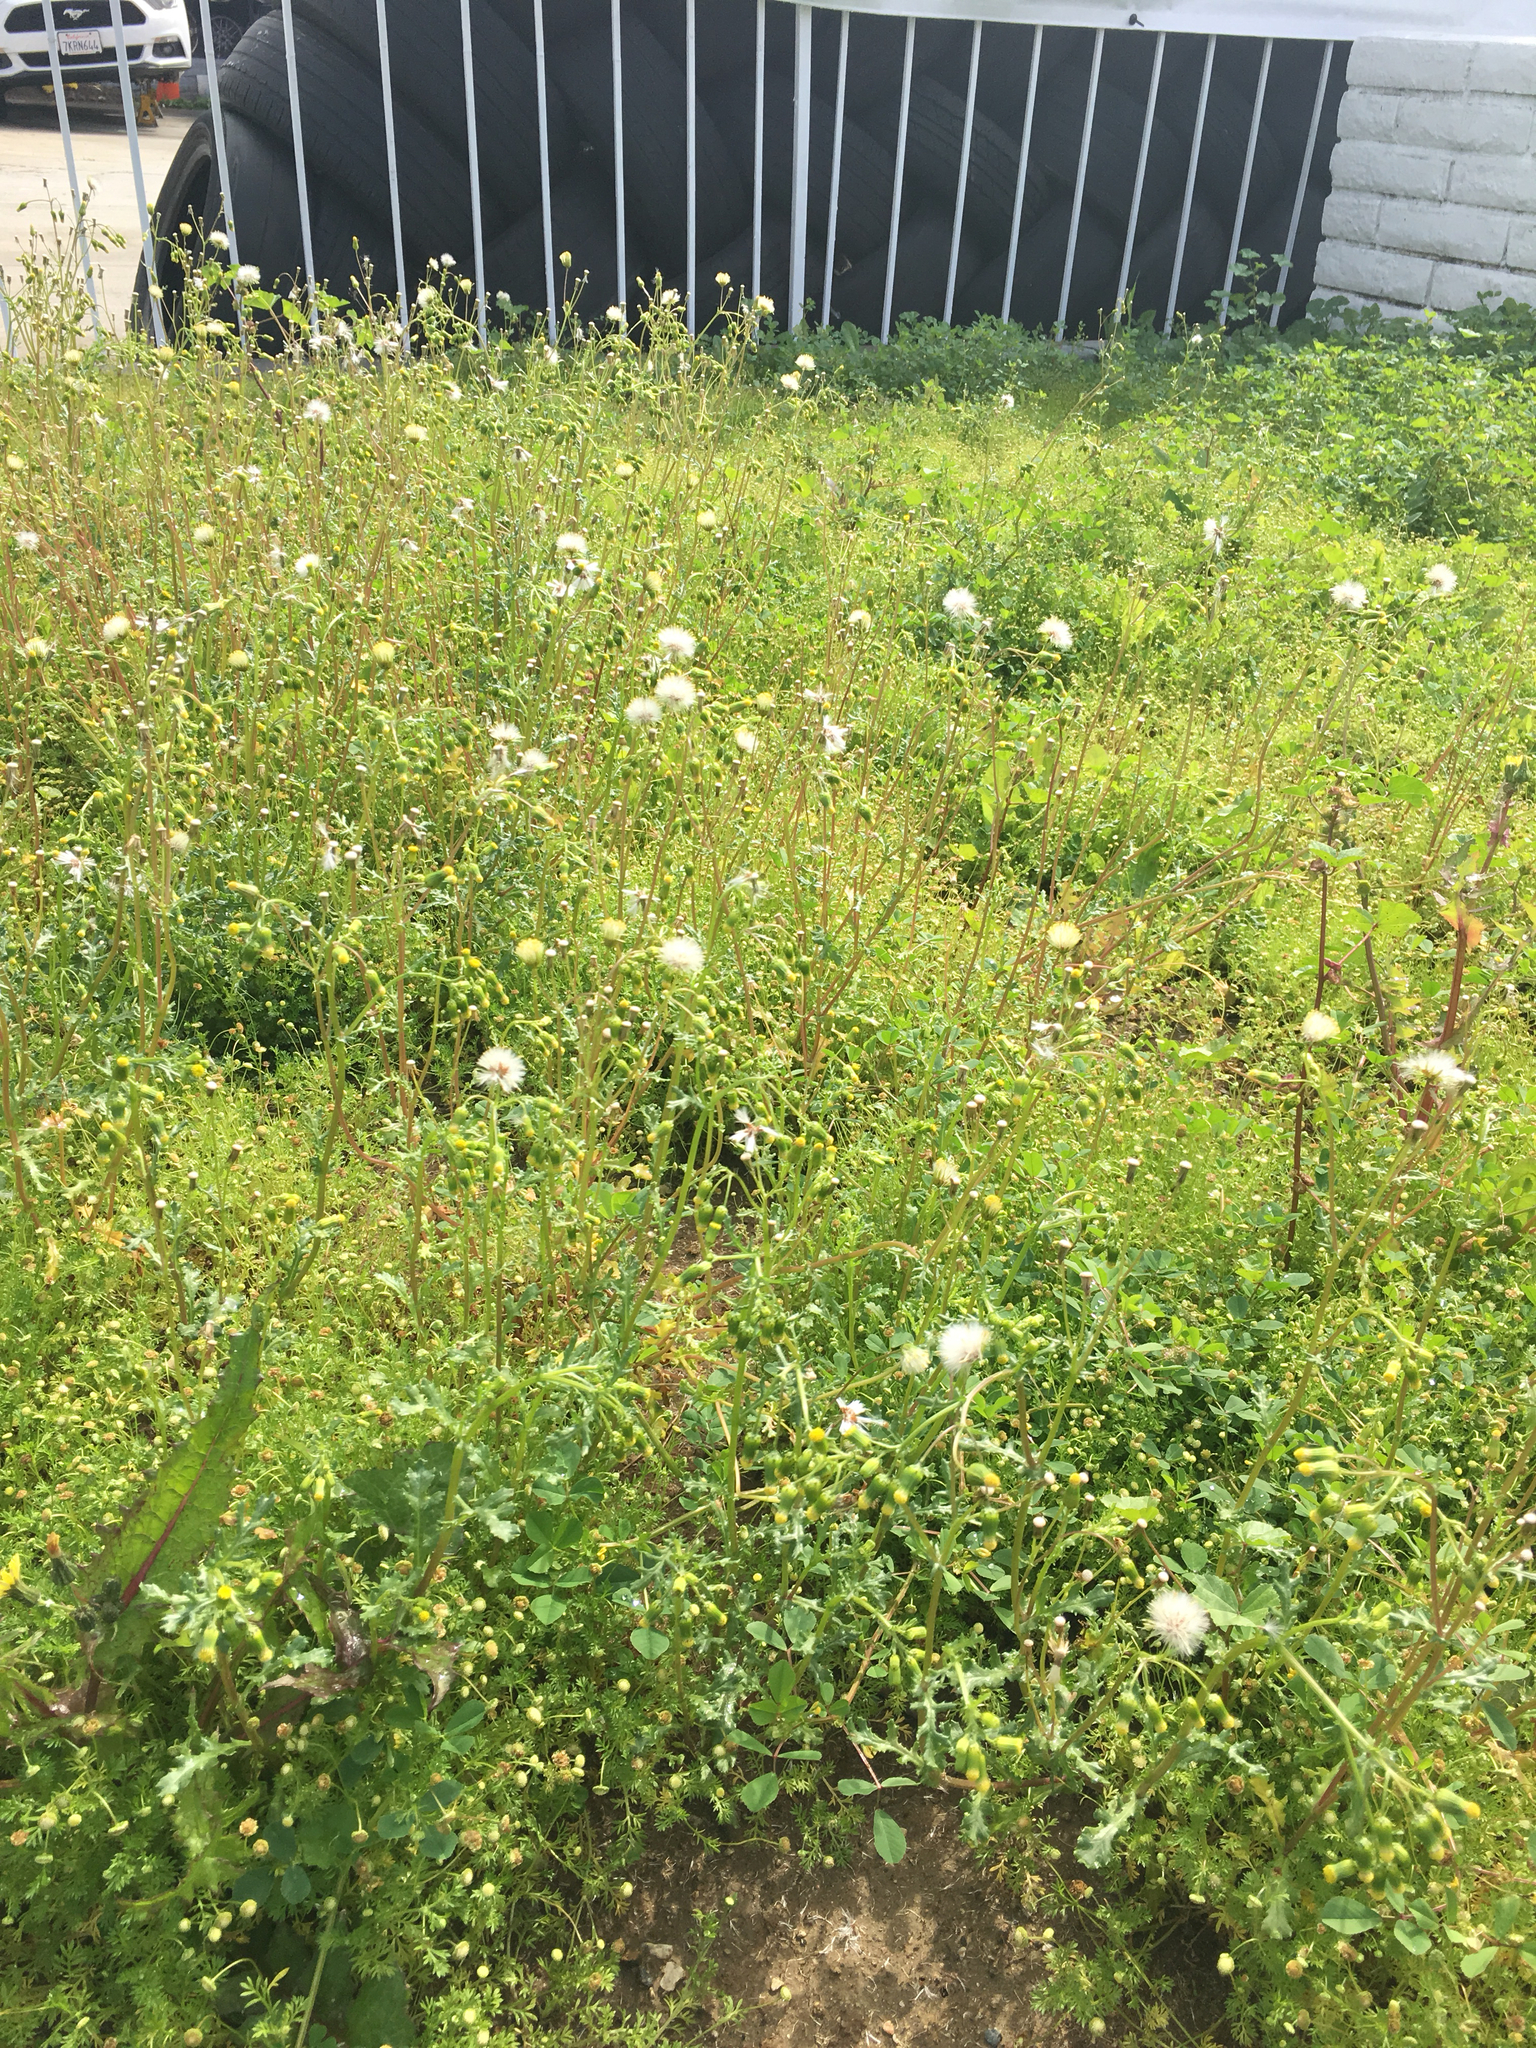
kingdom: Plantae
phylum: Tracheophyta
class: Magnoliopsida
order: Asterales
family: Asteraceae
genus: Senecio
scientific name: Senecio vulgaris
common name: Old-man-in-the-spring
